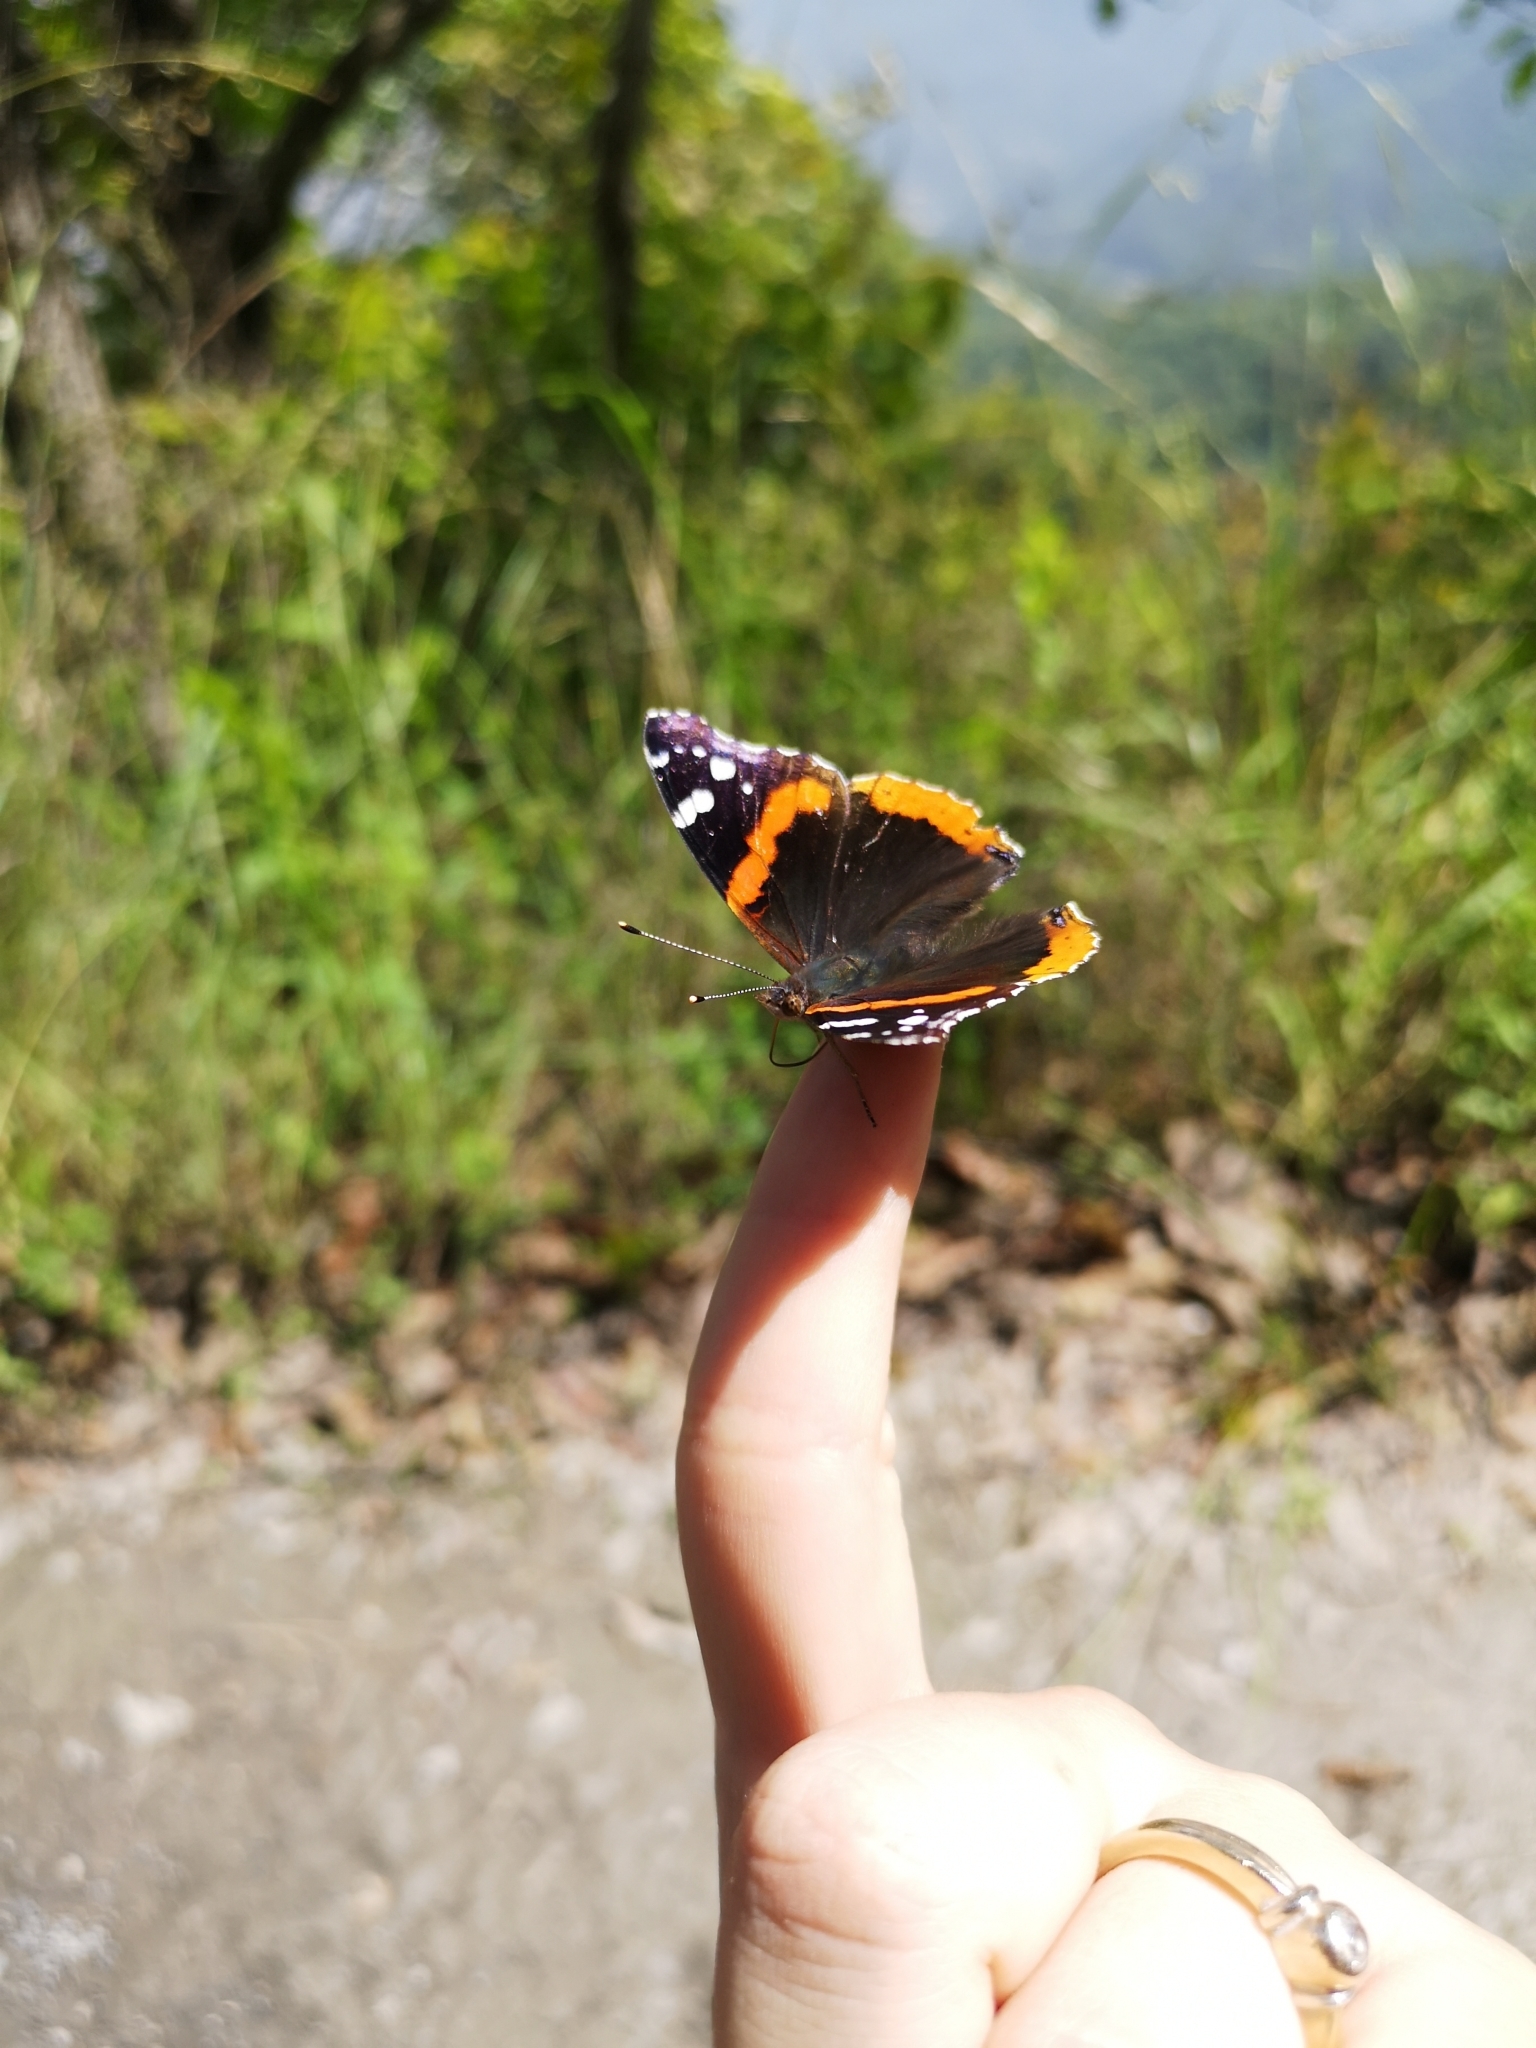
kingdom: Animalia
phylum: Arthropoda
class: Insecta
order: Lepidoptera
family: Nymphalidae
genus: Vanessa
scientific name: Vanessa atalanta
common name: Red admiral
